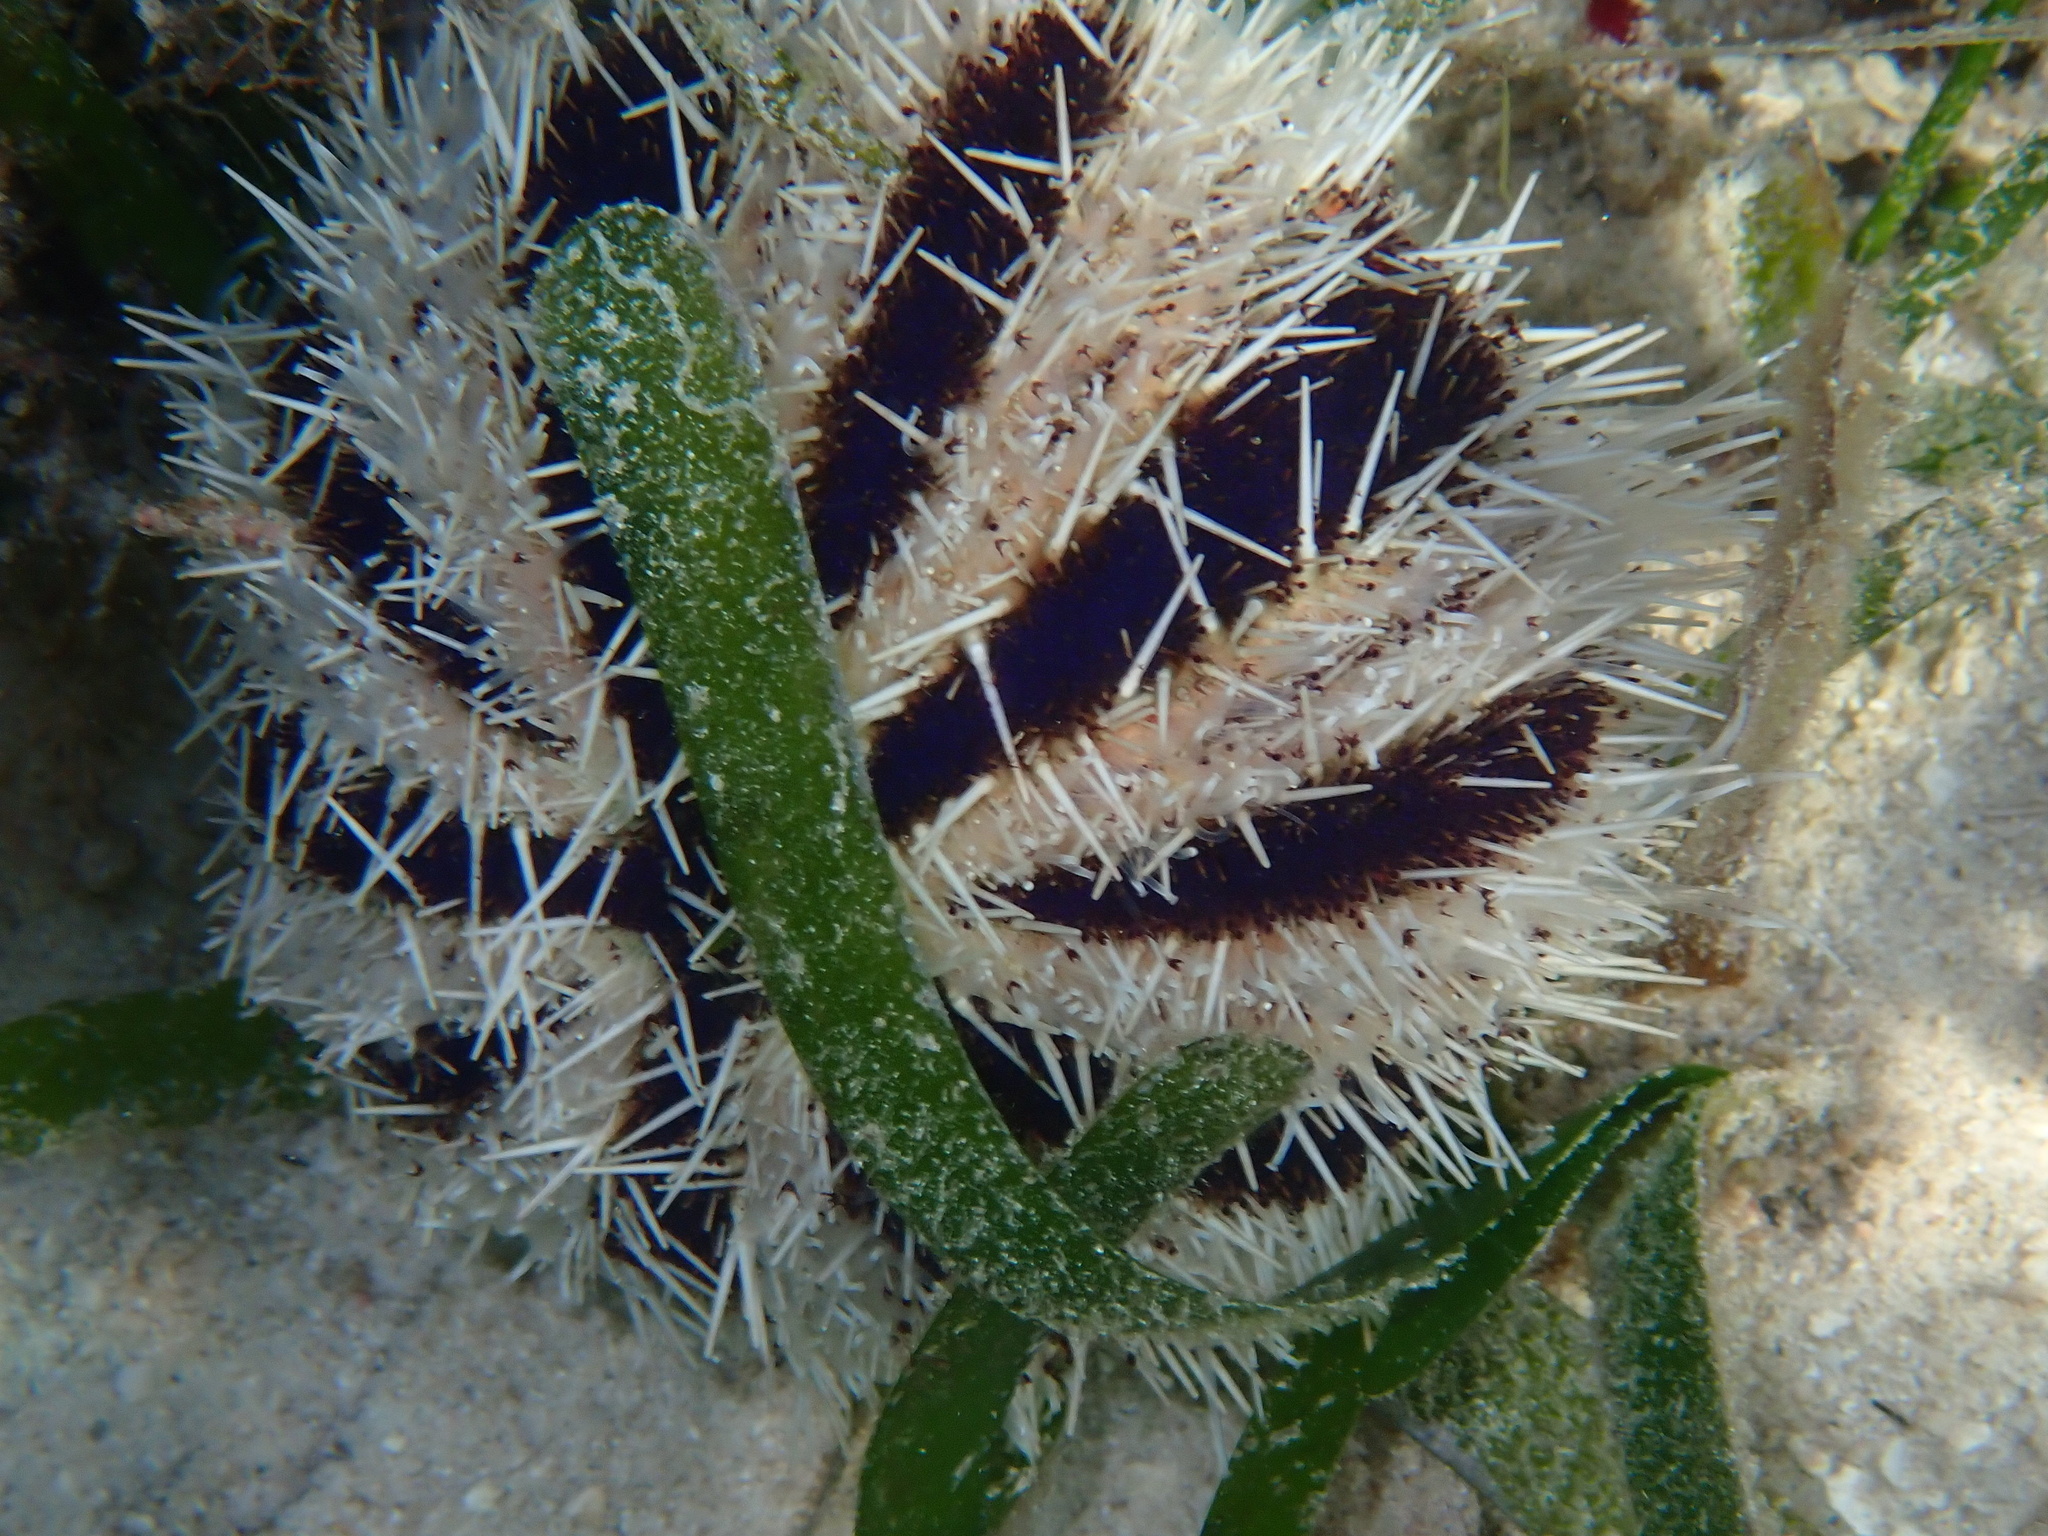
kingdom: Animalia
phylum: Echinodermata
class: Echinoidea
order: Camarodonta
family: Toxopneustidae
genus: Tripneustes
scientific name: Tripneustes gratilla
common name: Bischofsmützenseeigel
